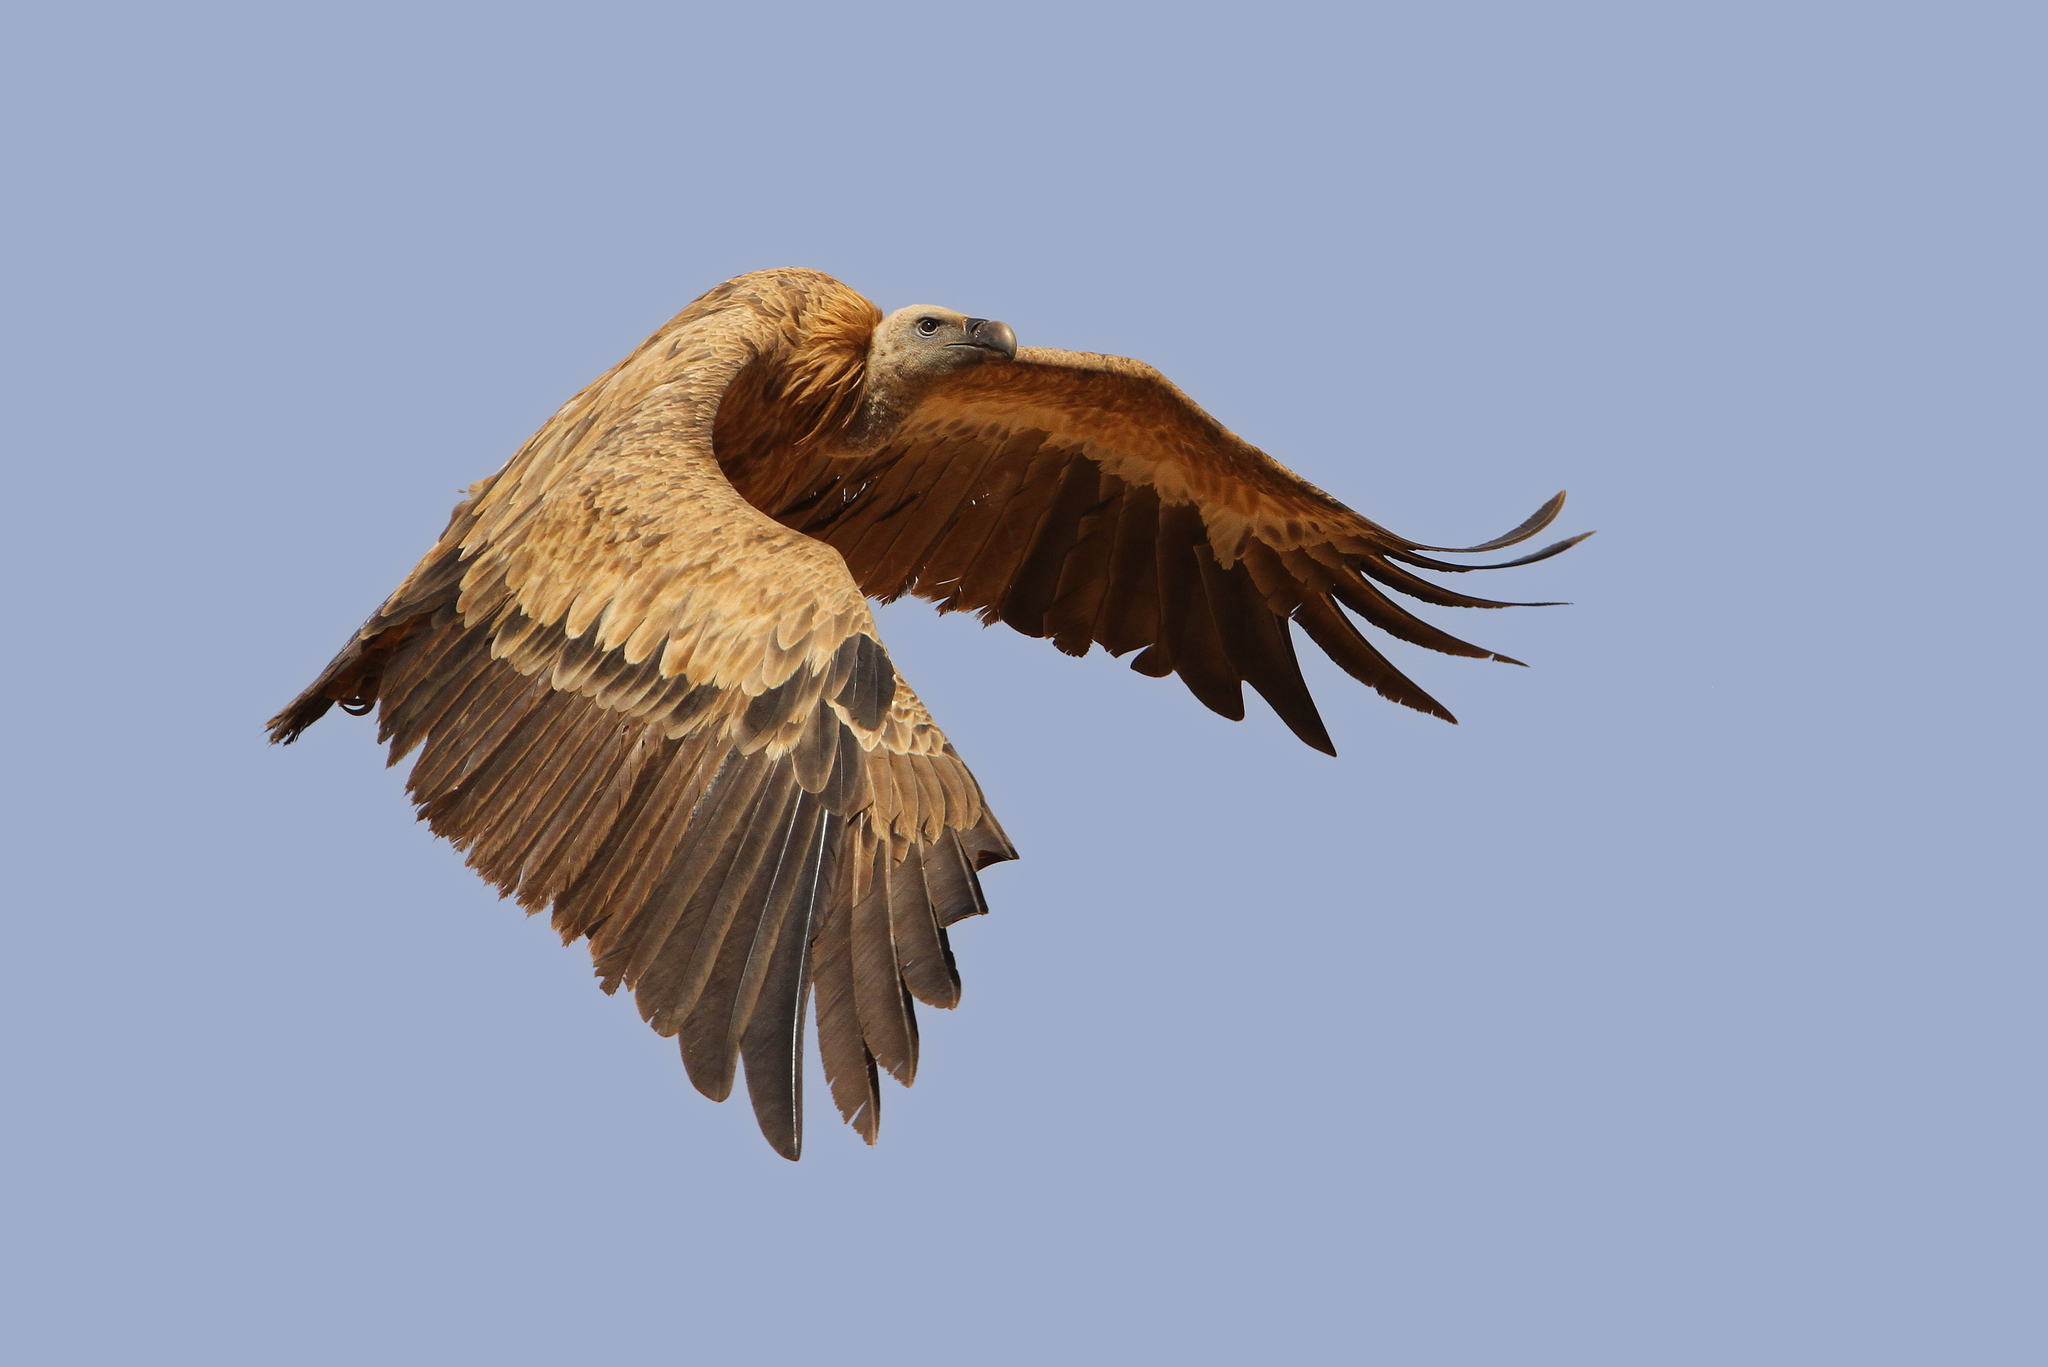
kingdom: Animalia
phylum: Chordata
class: Aves
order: Accipitriformes
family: Accipitridae
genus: Gyps
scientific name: Gyps fulvus
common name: Griffon vulture
